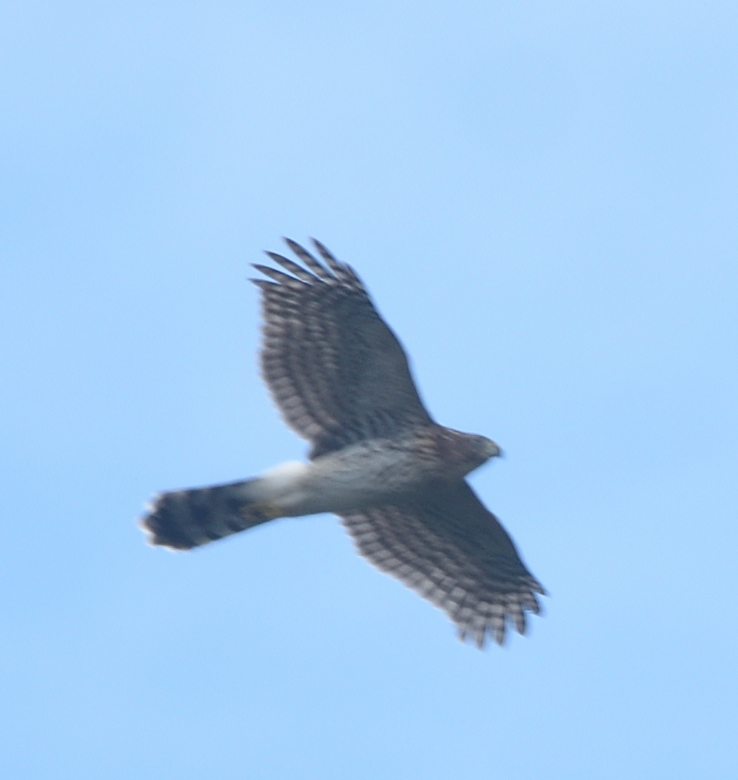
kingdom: Animalia
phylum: Chordata
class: Aves
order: Accipitriformes
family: Accipitridae
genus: Accipiter
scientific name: Accipiter cooperii
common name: Cooper's hawk
